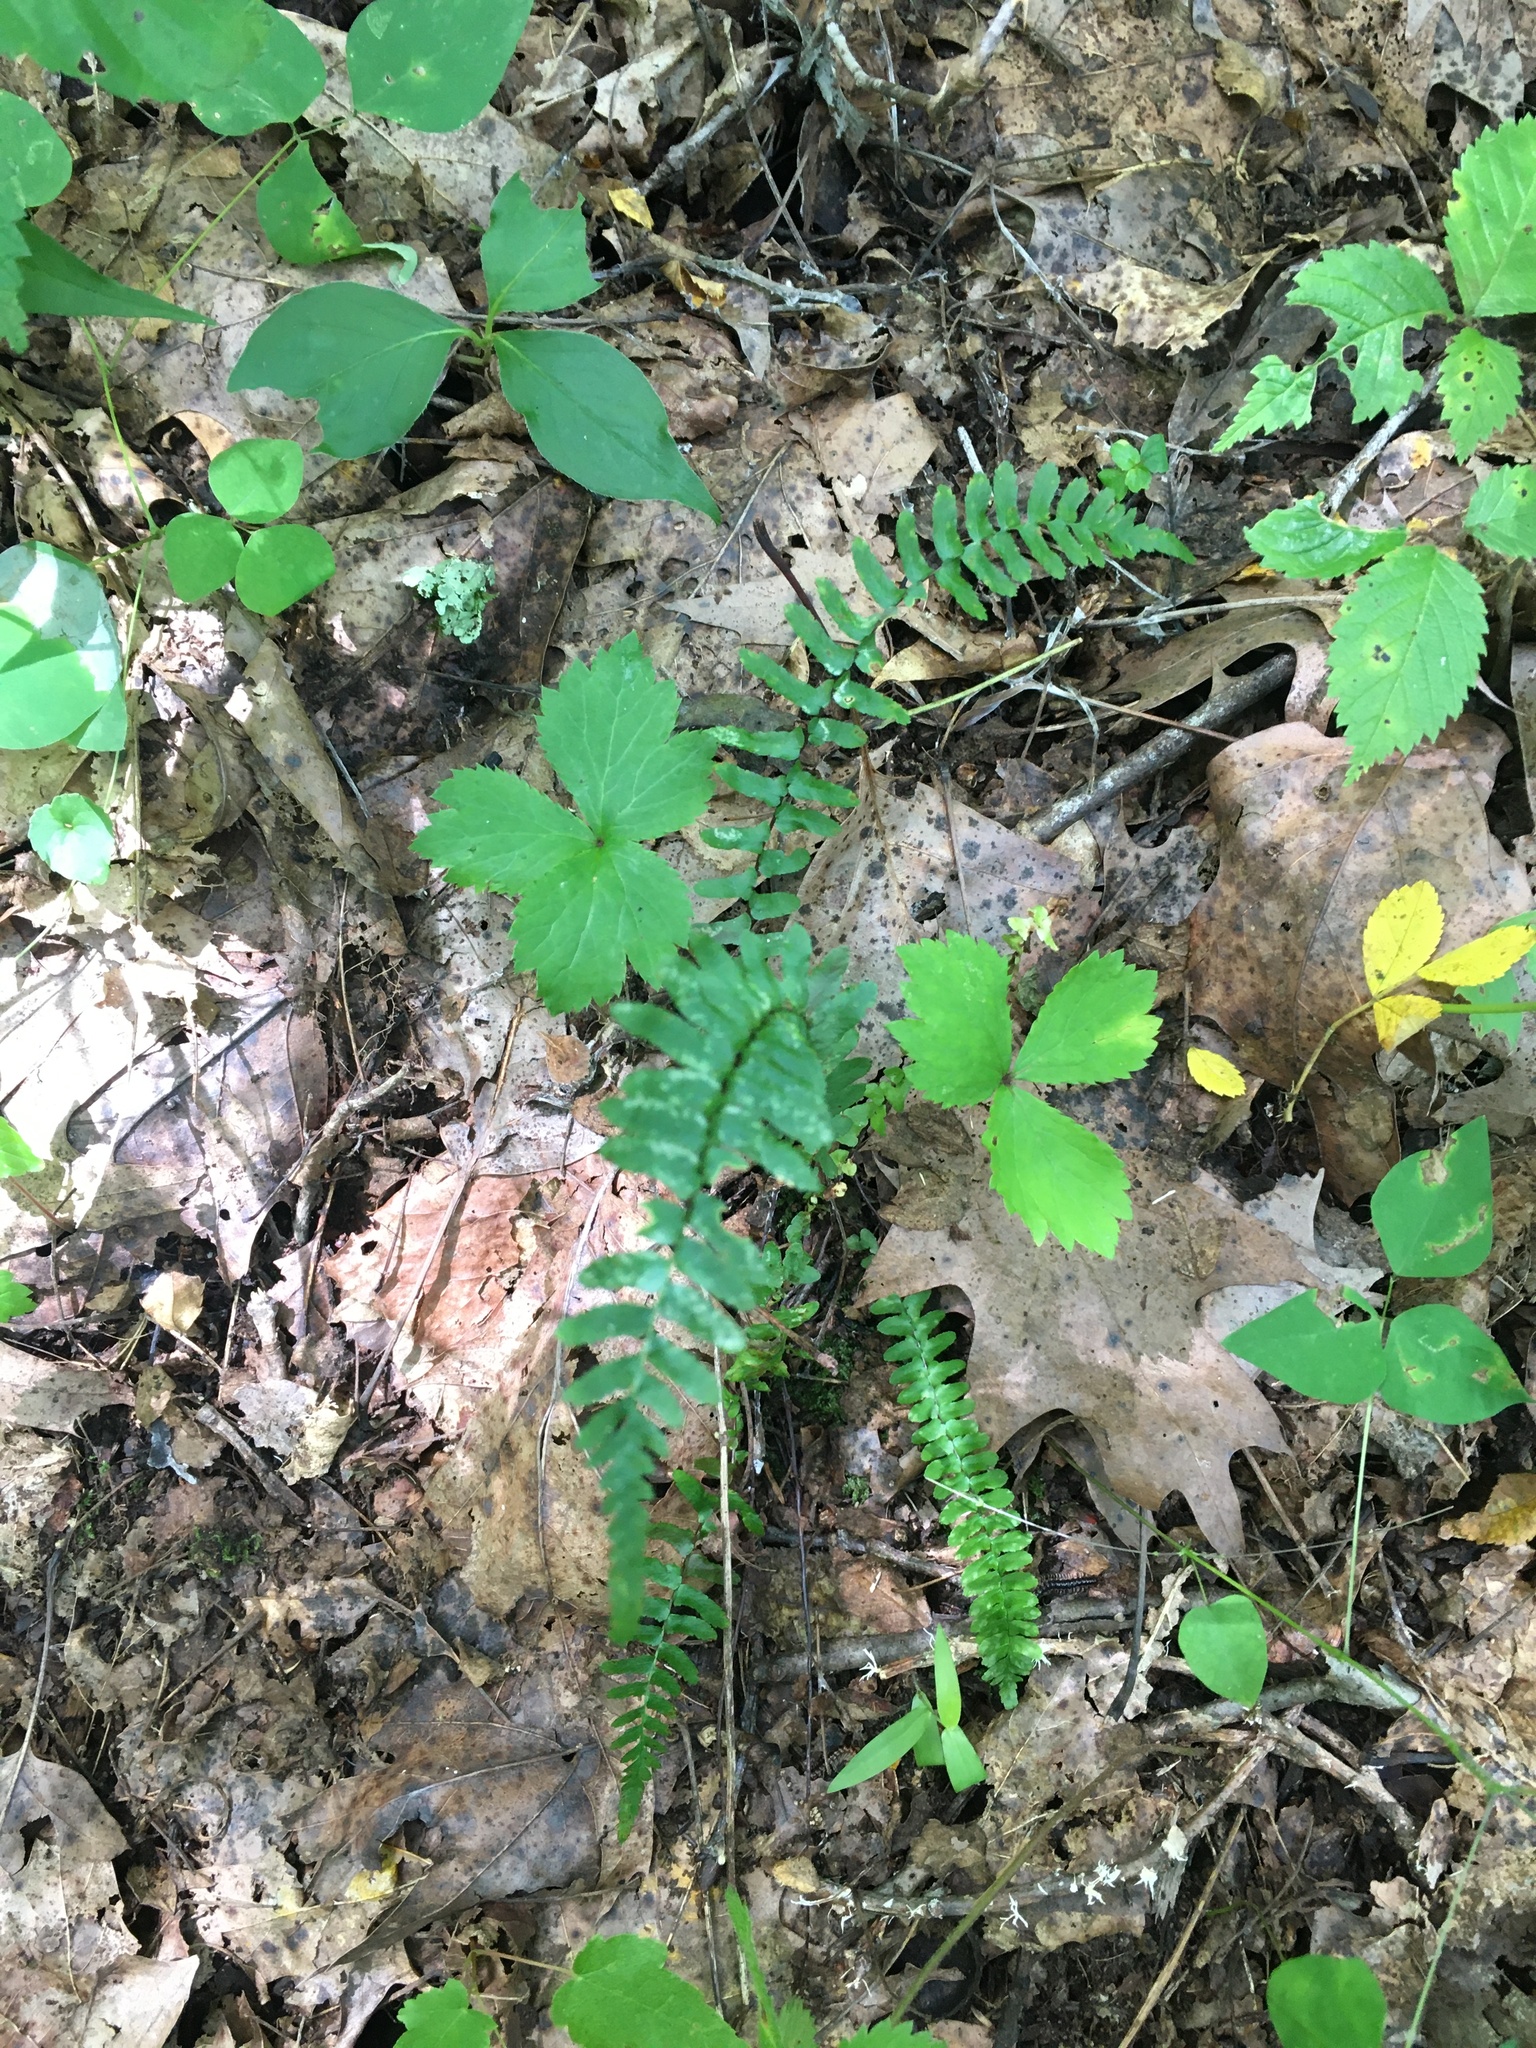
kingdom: Plantae
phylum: Tracheophyta
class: Polypodiopsida
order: Polypodiales
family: Aspleniaceae
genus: Asplenium
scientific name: Asplenium platyneuron
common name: Ebony spleenwort
